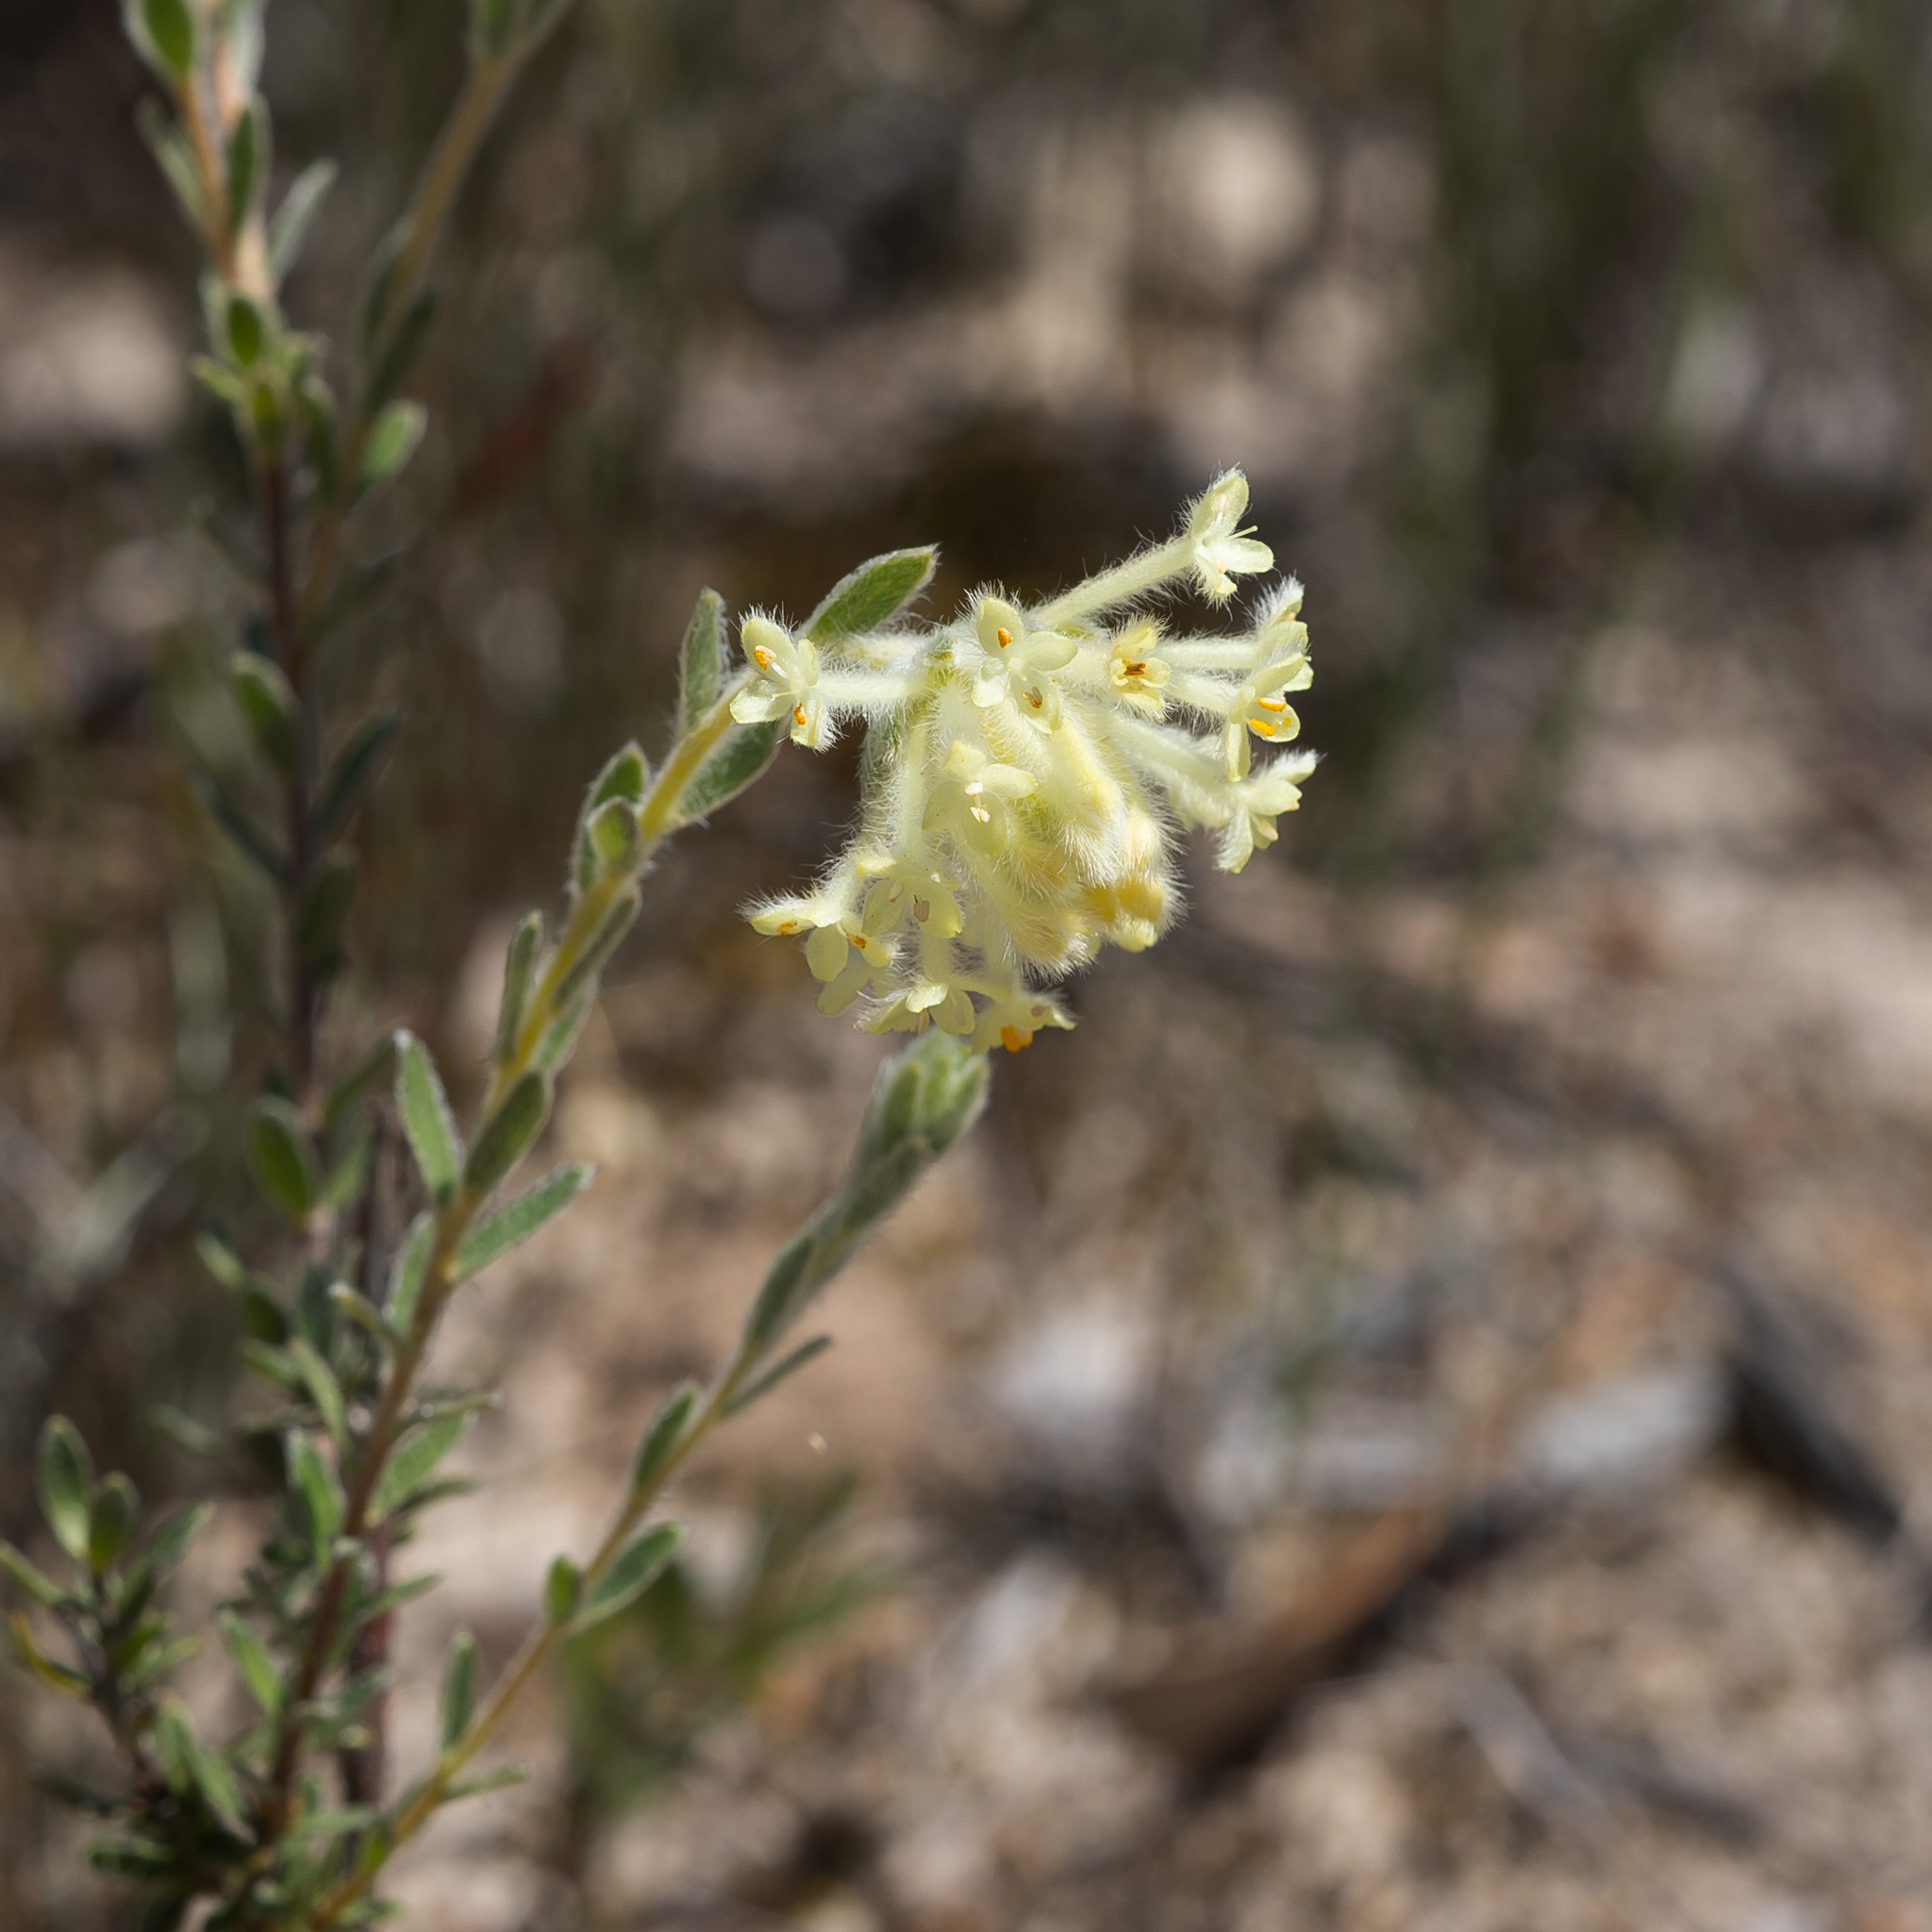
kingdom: Plantae
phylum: Tracheophyta
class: Magnoliopsida
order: Malvales
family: Thymelaeaceae
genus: Pimelea
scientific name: Pimelea octophylla
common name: Woolly riceflower
